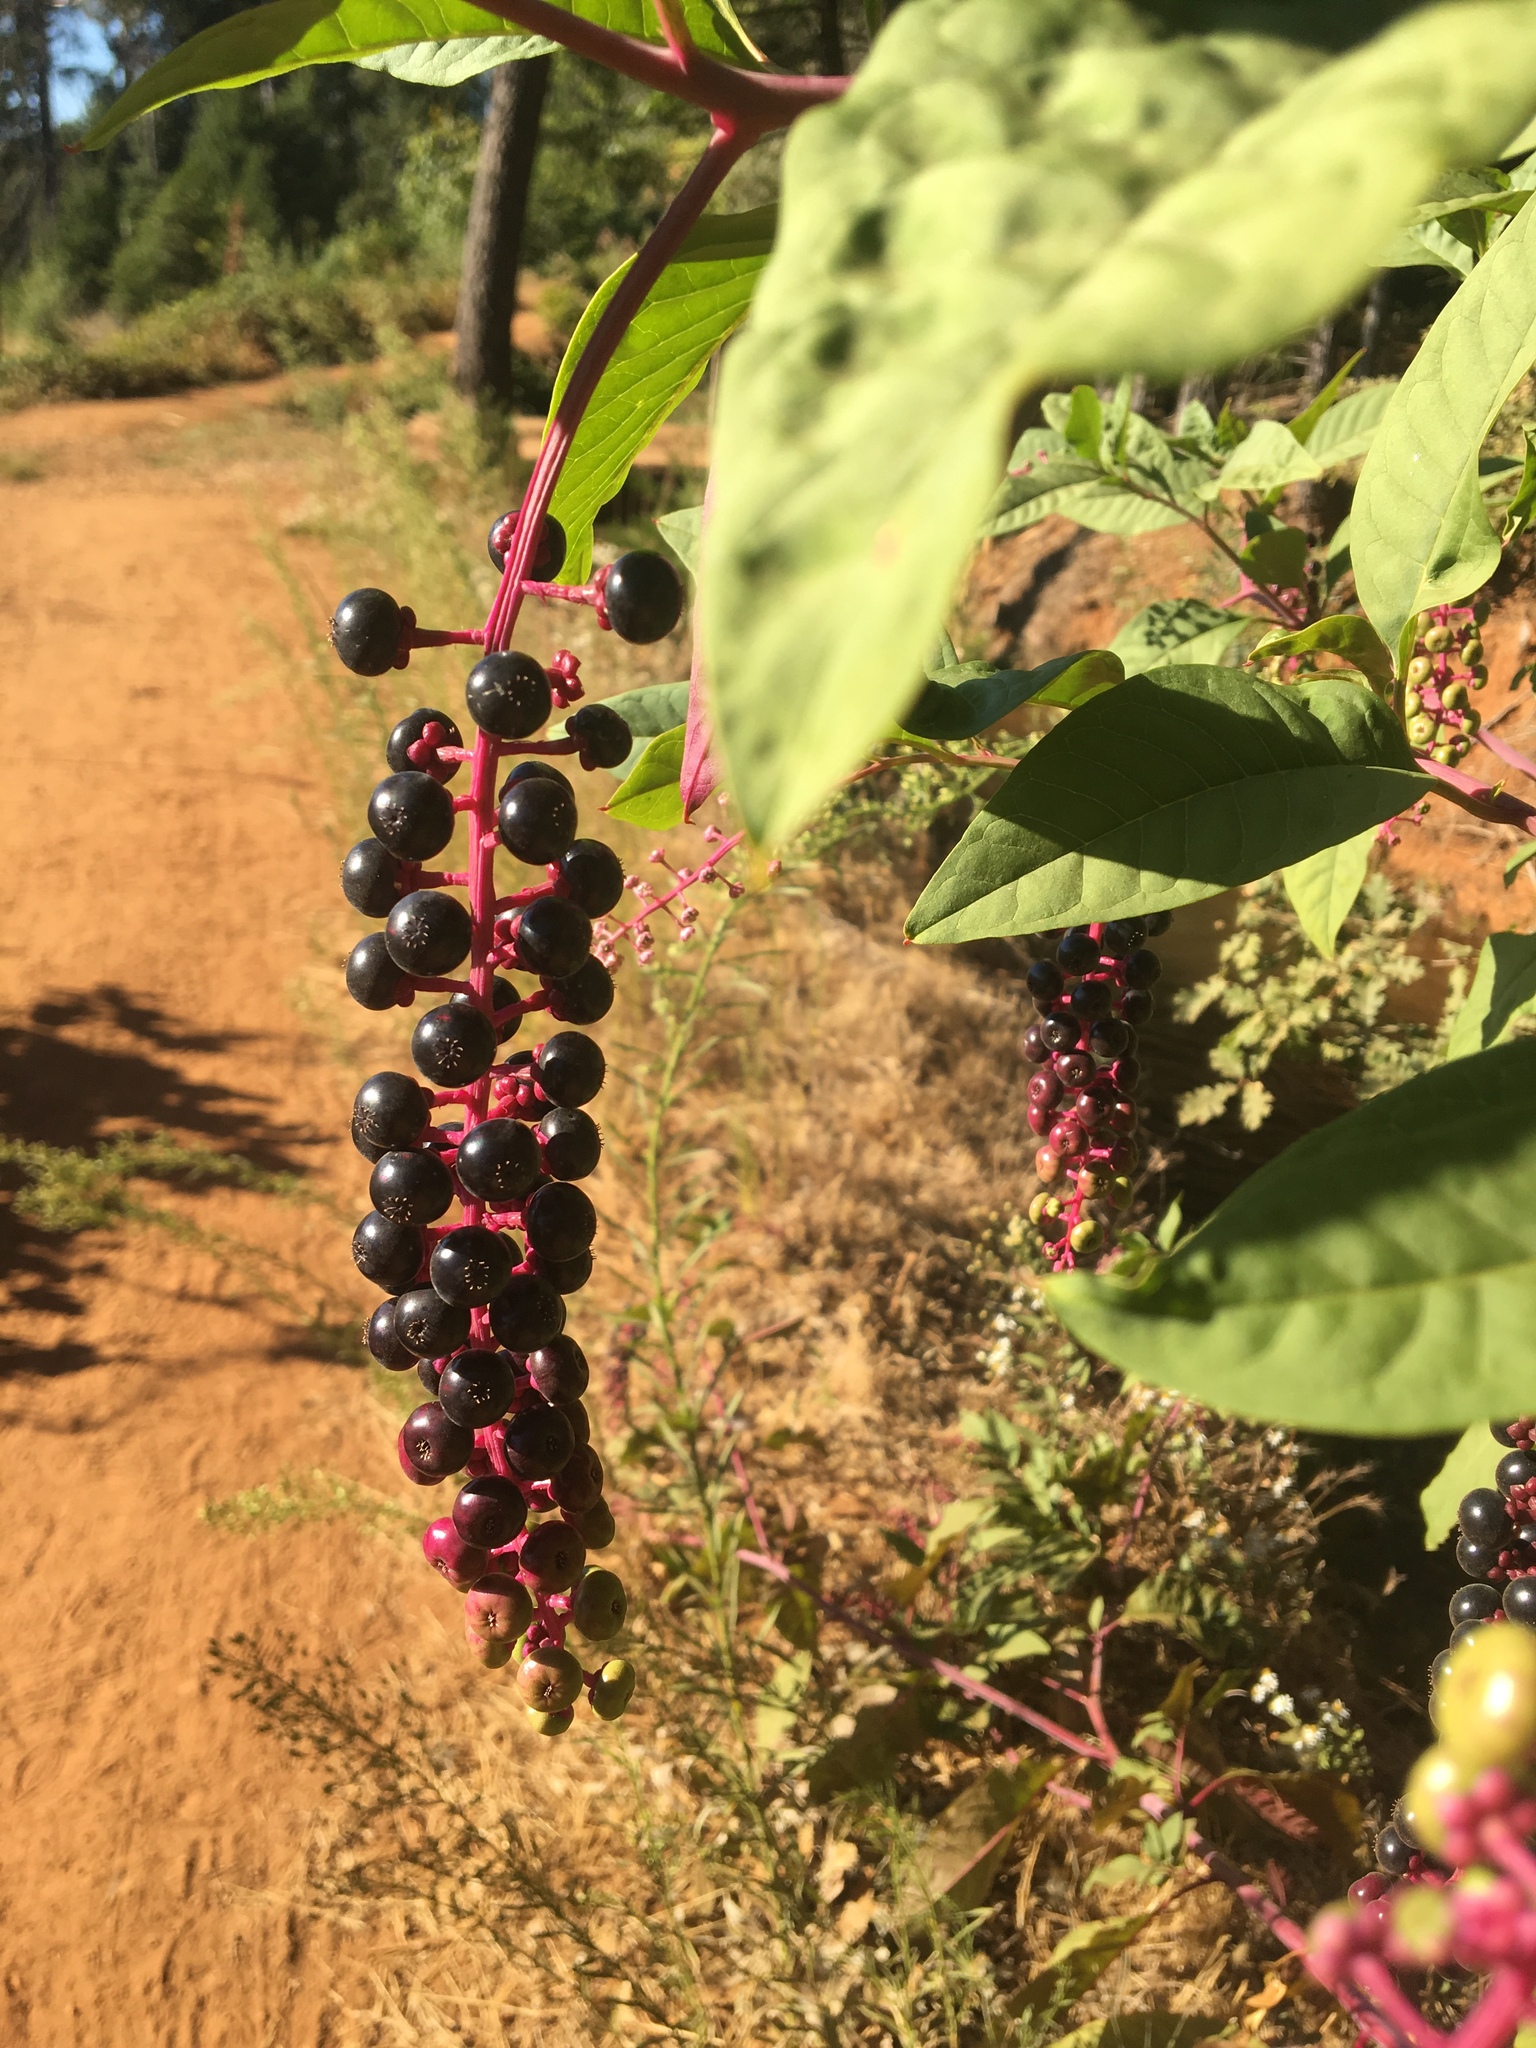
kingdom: Plantae
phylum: Tracheophyta
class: Magnoliopsida
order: Caryophyllales
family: Phytolaccaceae
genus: Phytolacca
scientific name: Phytolacca americana
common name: American pokeweed
